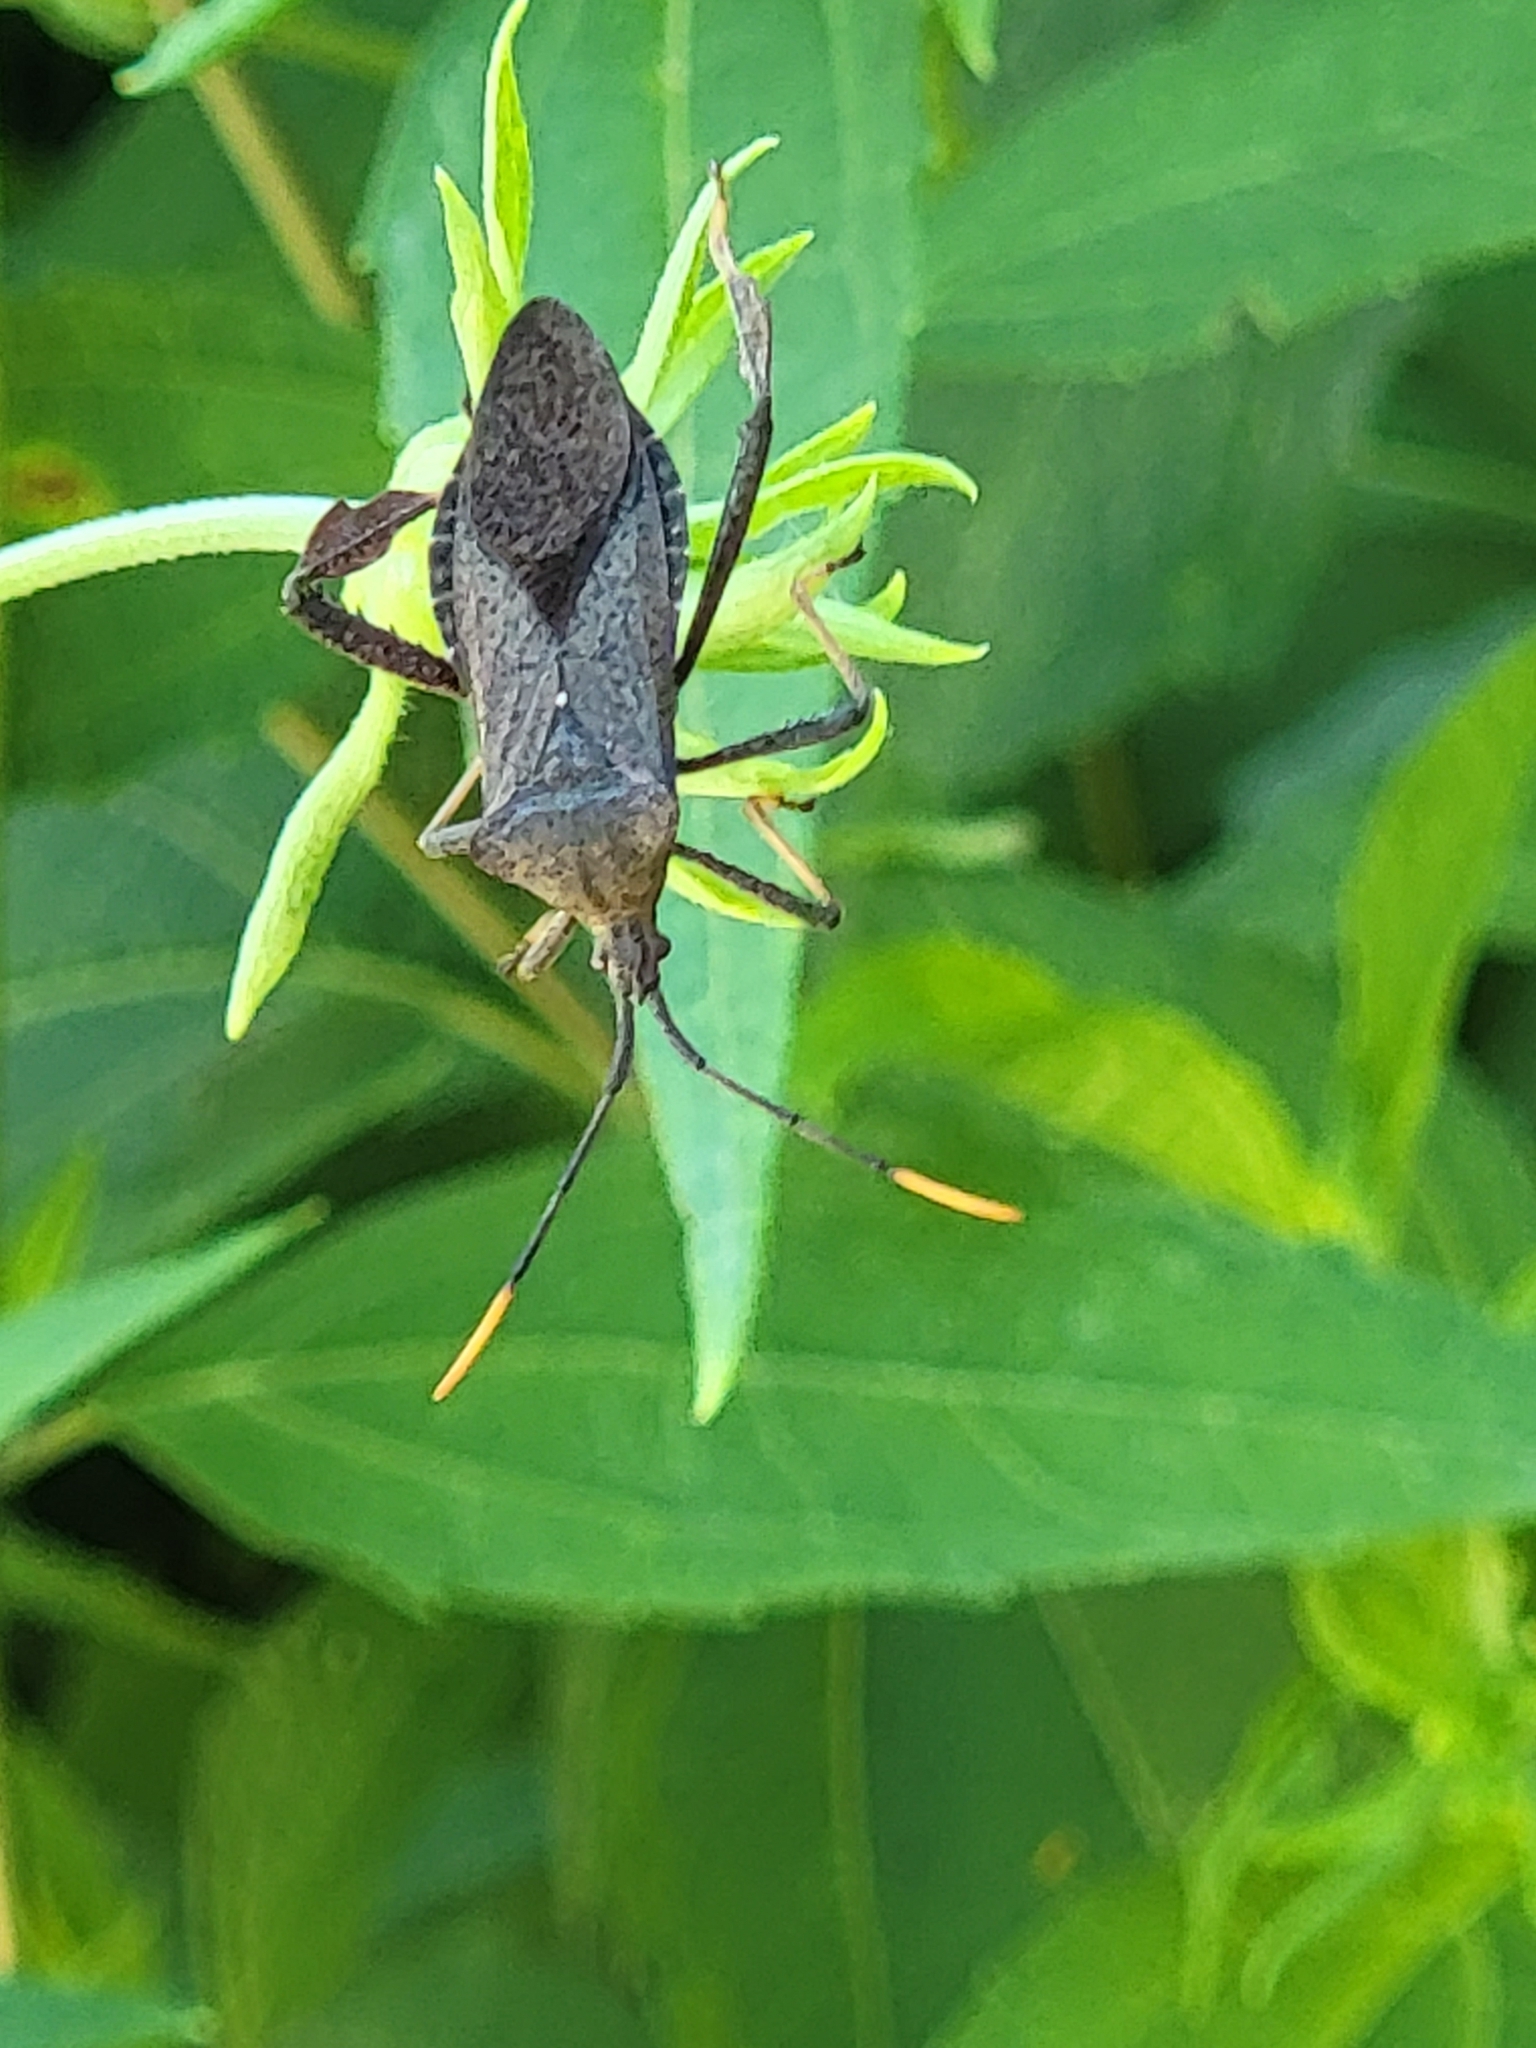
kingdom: Animalia
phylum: Arthropoda
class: Insecta
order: Hemiptera
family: Coreidae
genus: Acanthocephala
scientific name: Acanthocephala terminalis
